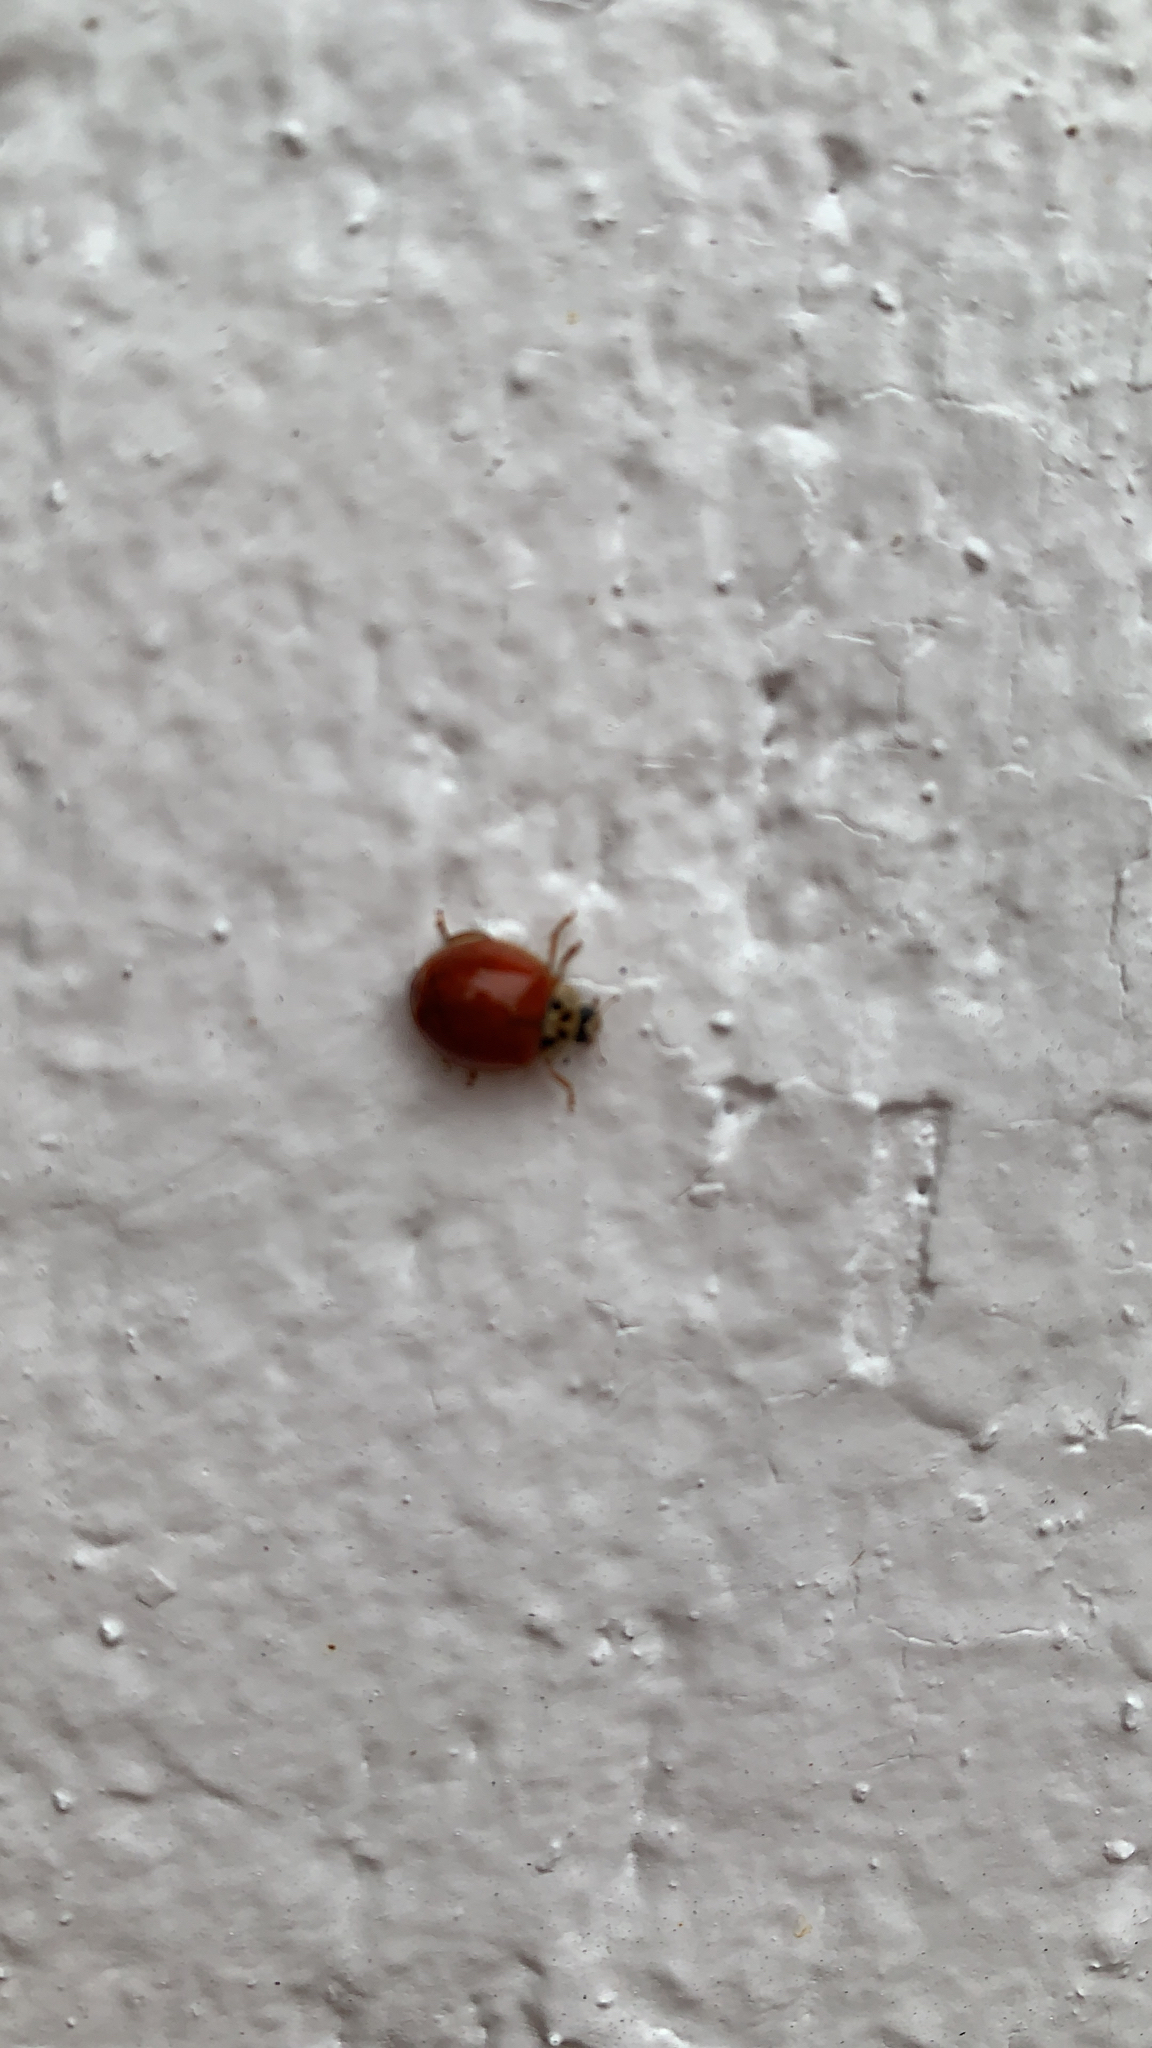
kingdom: Animalia
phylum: Arthropoda
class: Insecta
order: Coleoptera
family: Coccinellidae
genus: Harmonia
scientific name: Harmonia axyridis
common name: Harlequin ladybird
